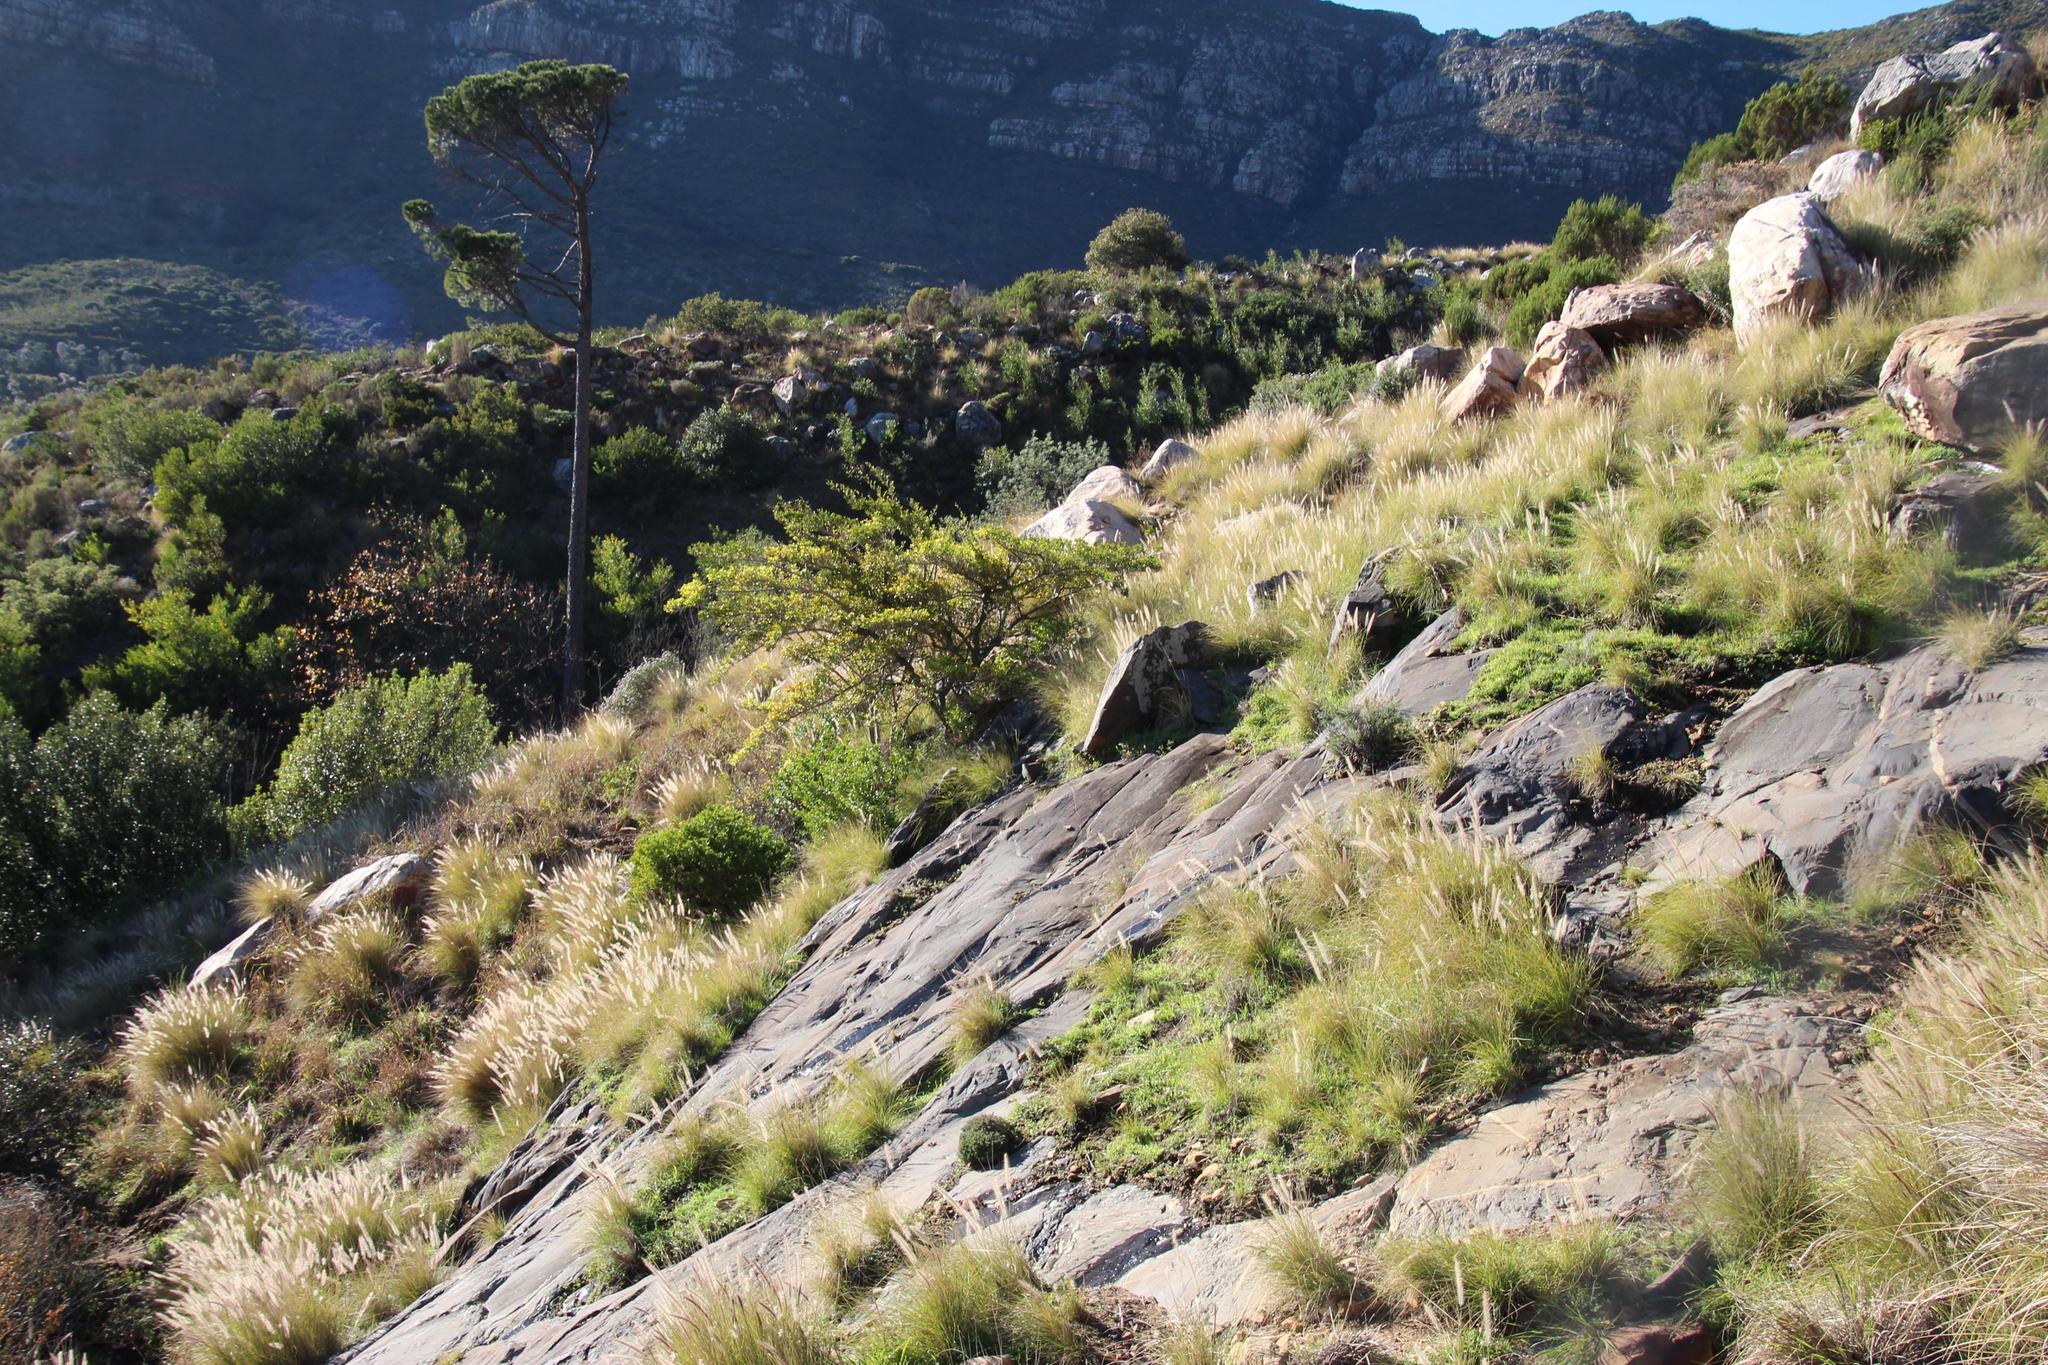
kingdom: Plantae
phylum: Tracheophyta
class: Liliopsida
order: Poales
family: Poaceae
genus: Cenchrus
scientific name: Cenchrus setaceus
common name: Crimson fountaingrass
